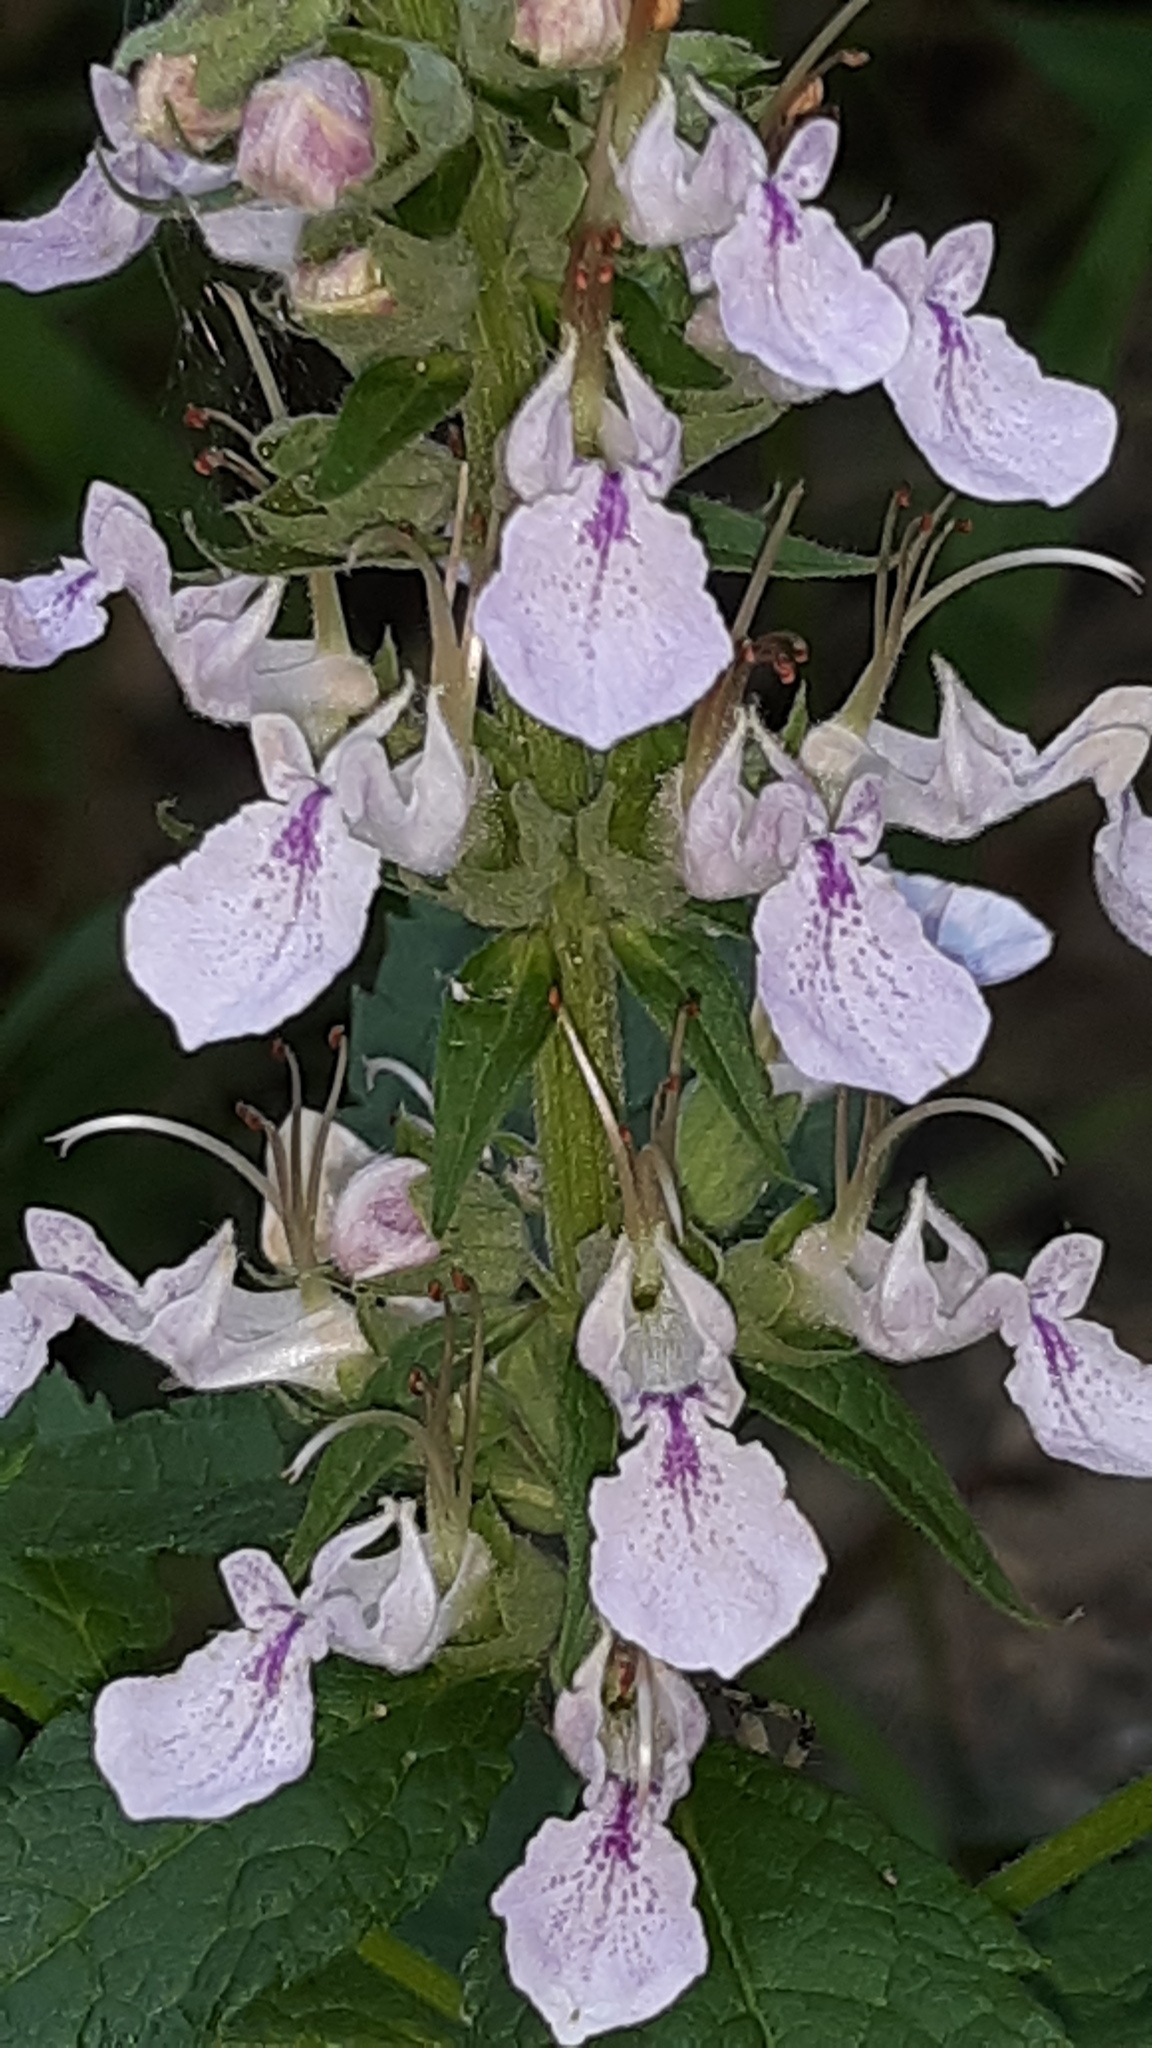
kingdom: Plantae
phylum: Tracheophyta
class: Magnoliopsida
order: Lamiales
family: Lamiaceae
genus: Teucrium
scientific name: Teucrium canadense
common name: American germander
